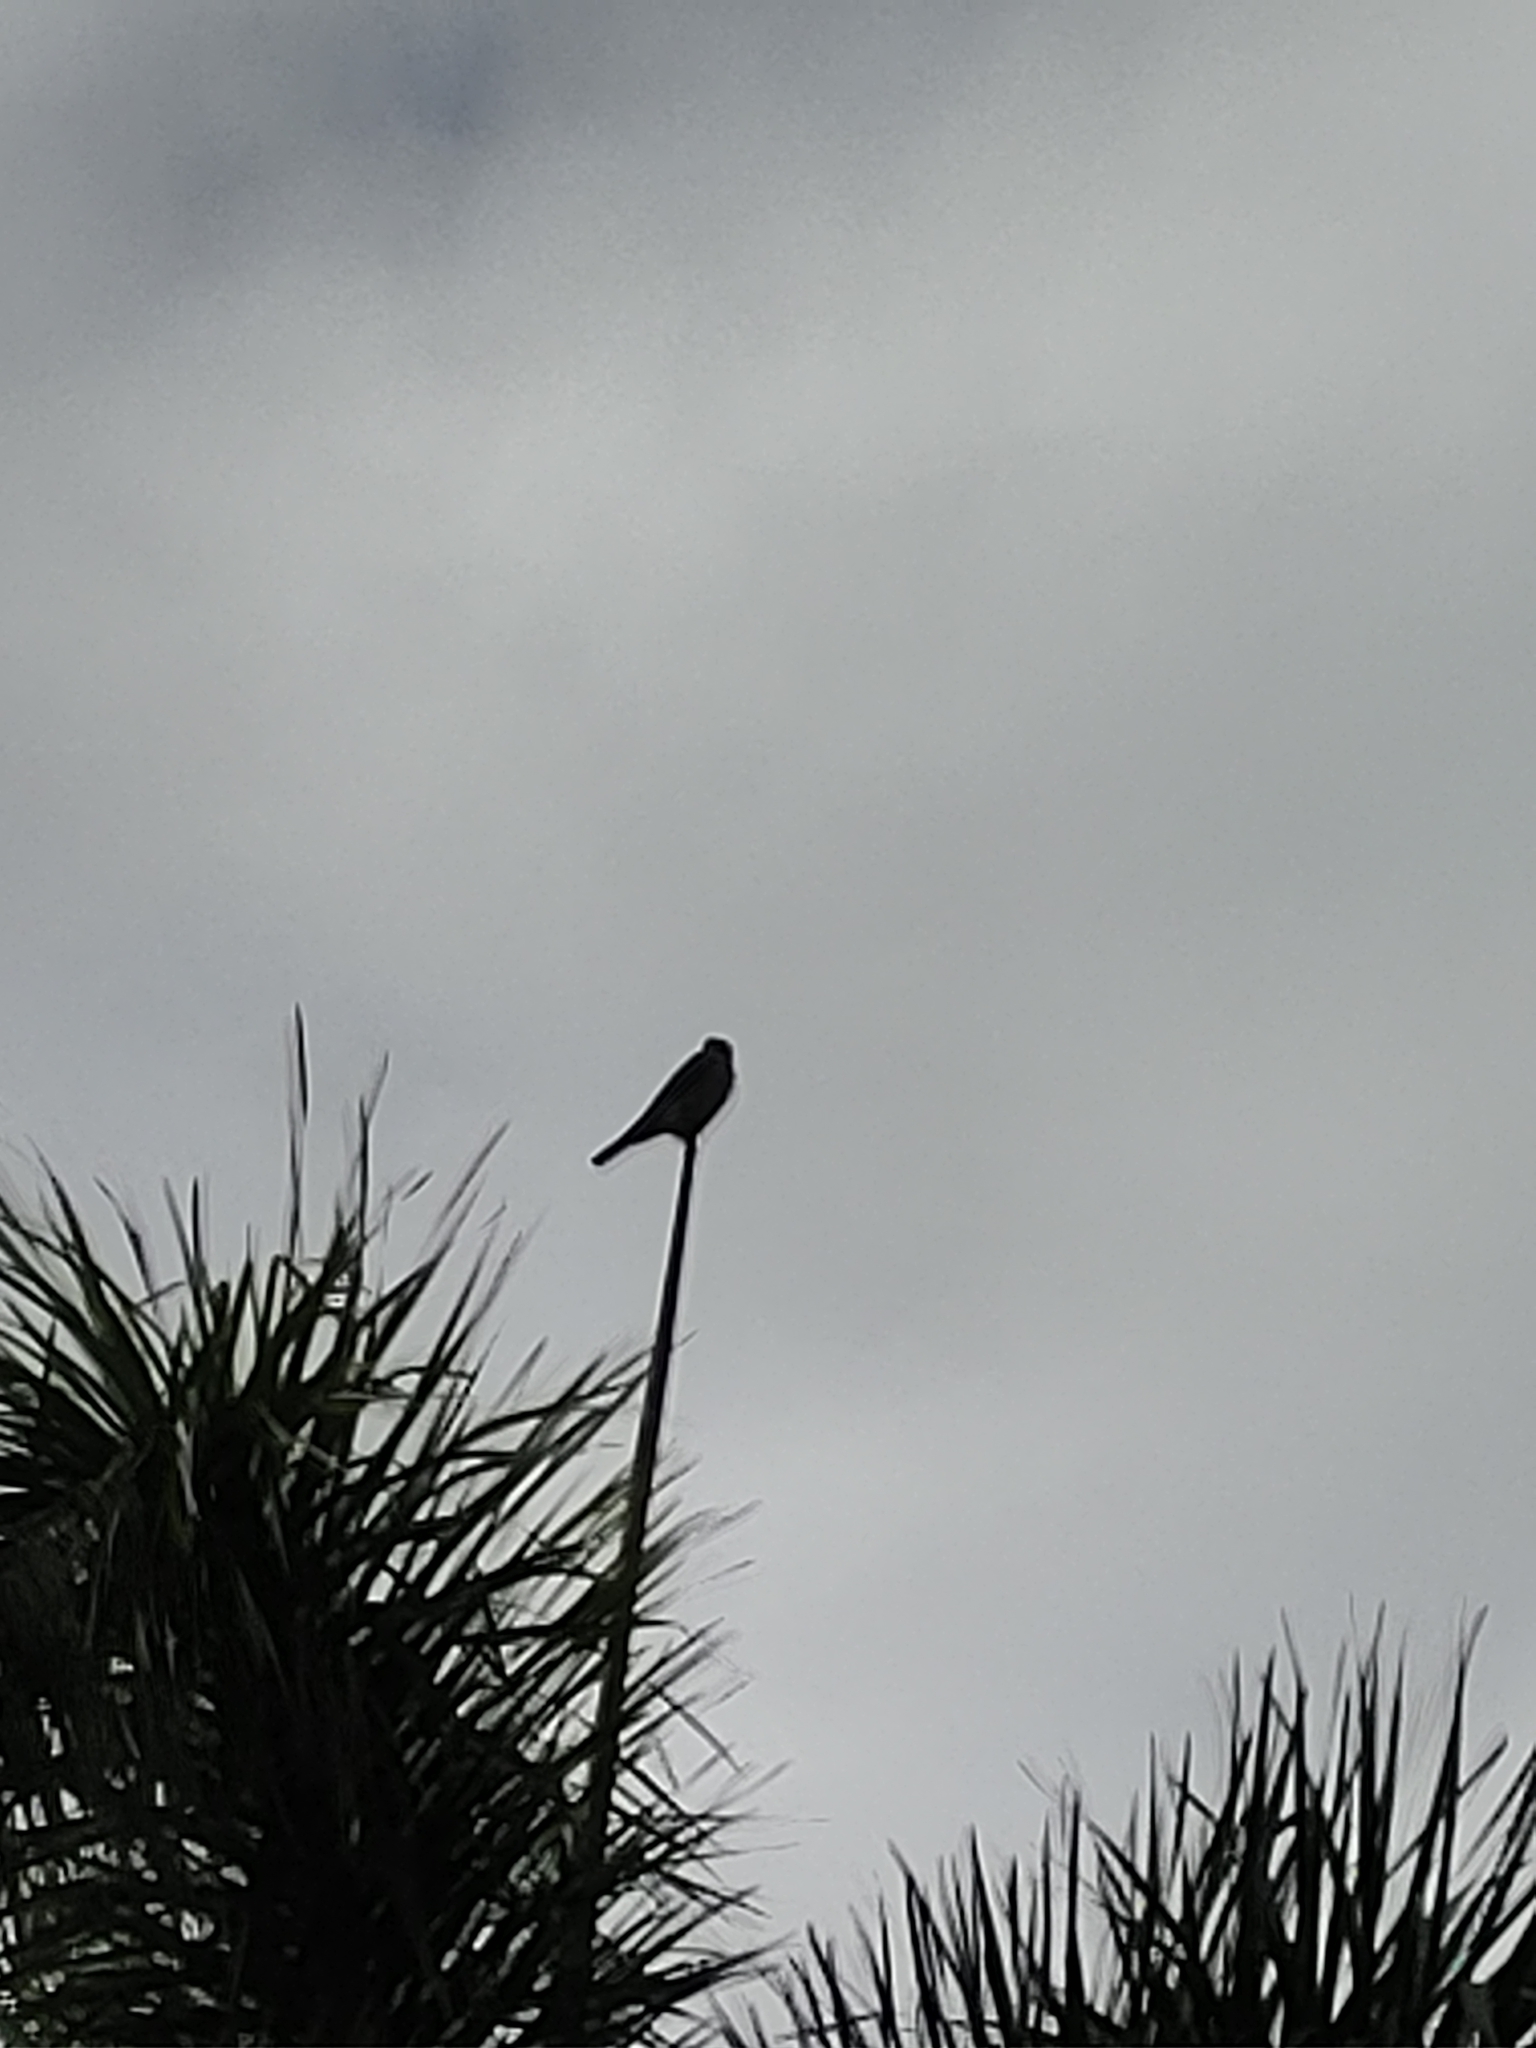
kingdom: Animalia
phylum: Chordata
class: Aves
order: Falconiformes
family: Falconidae
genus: Falco
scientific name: Falco sparverius
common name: American kestrel
